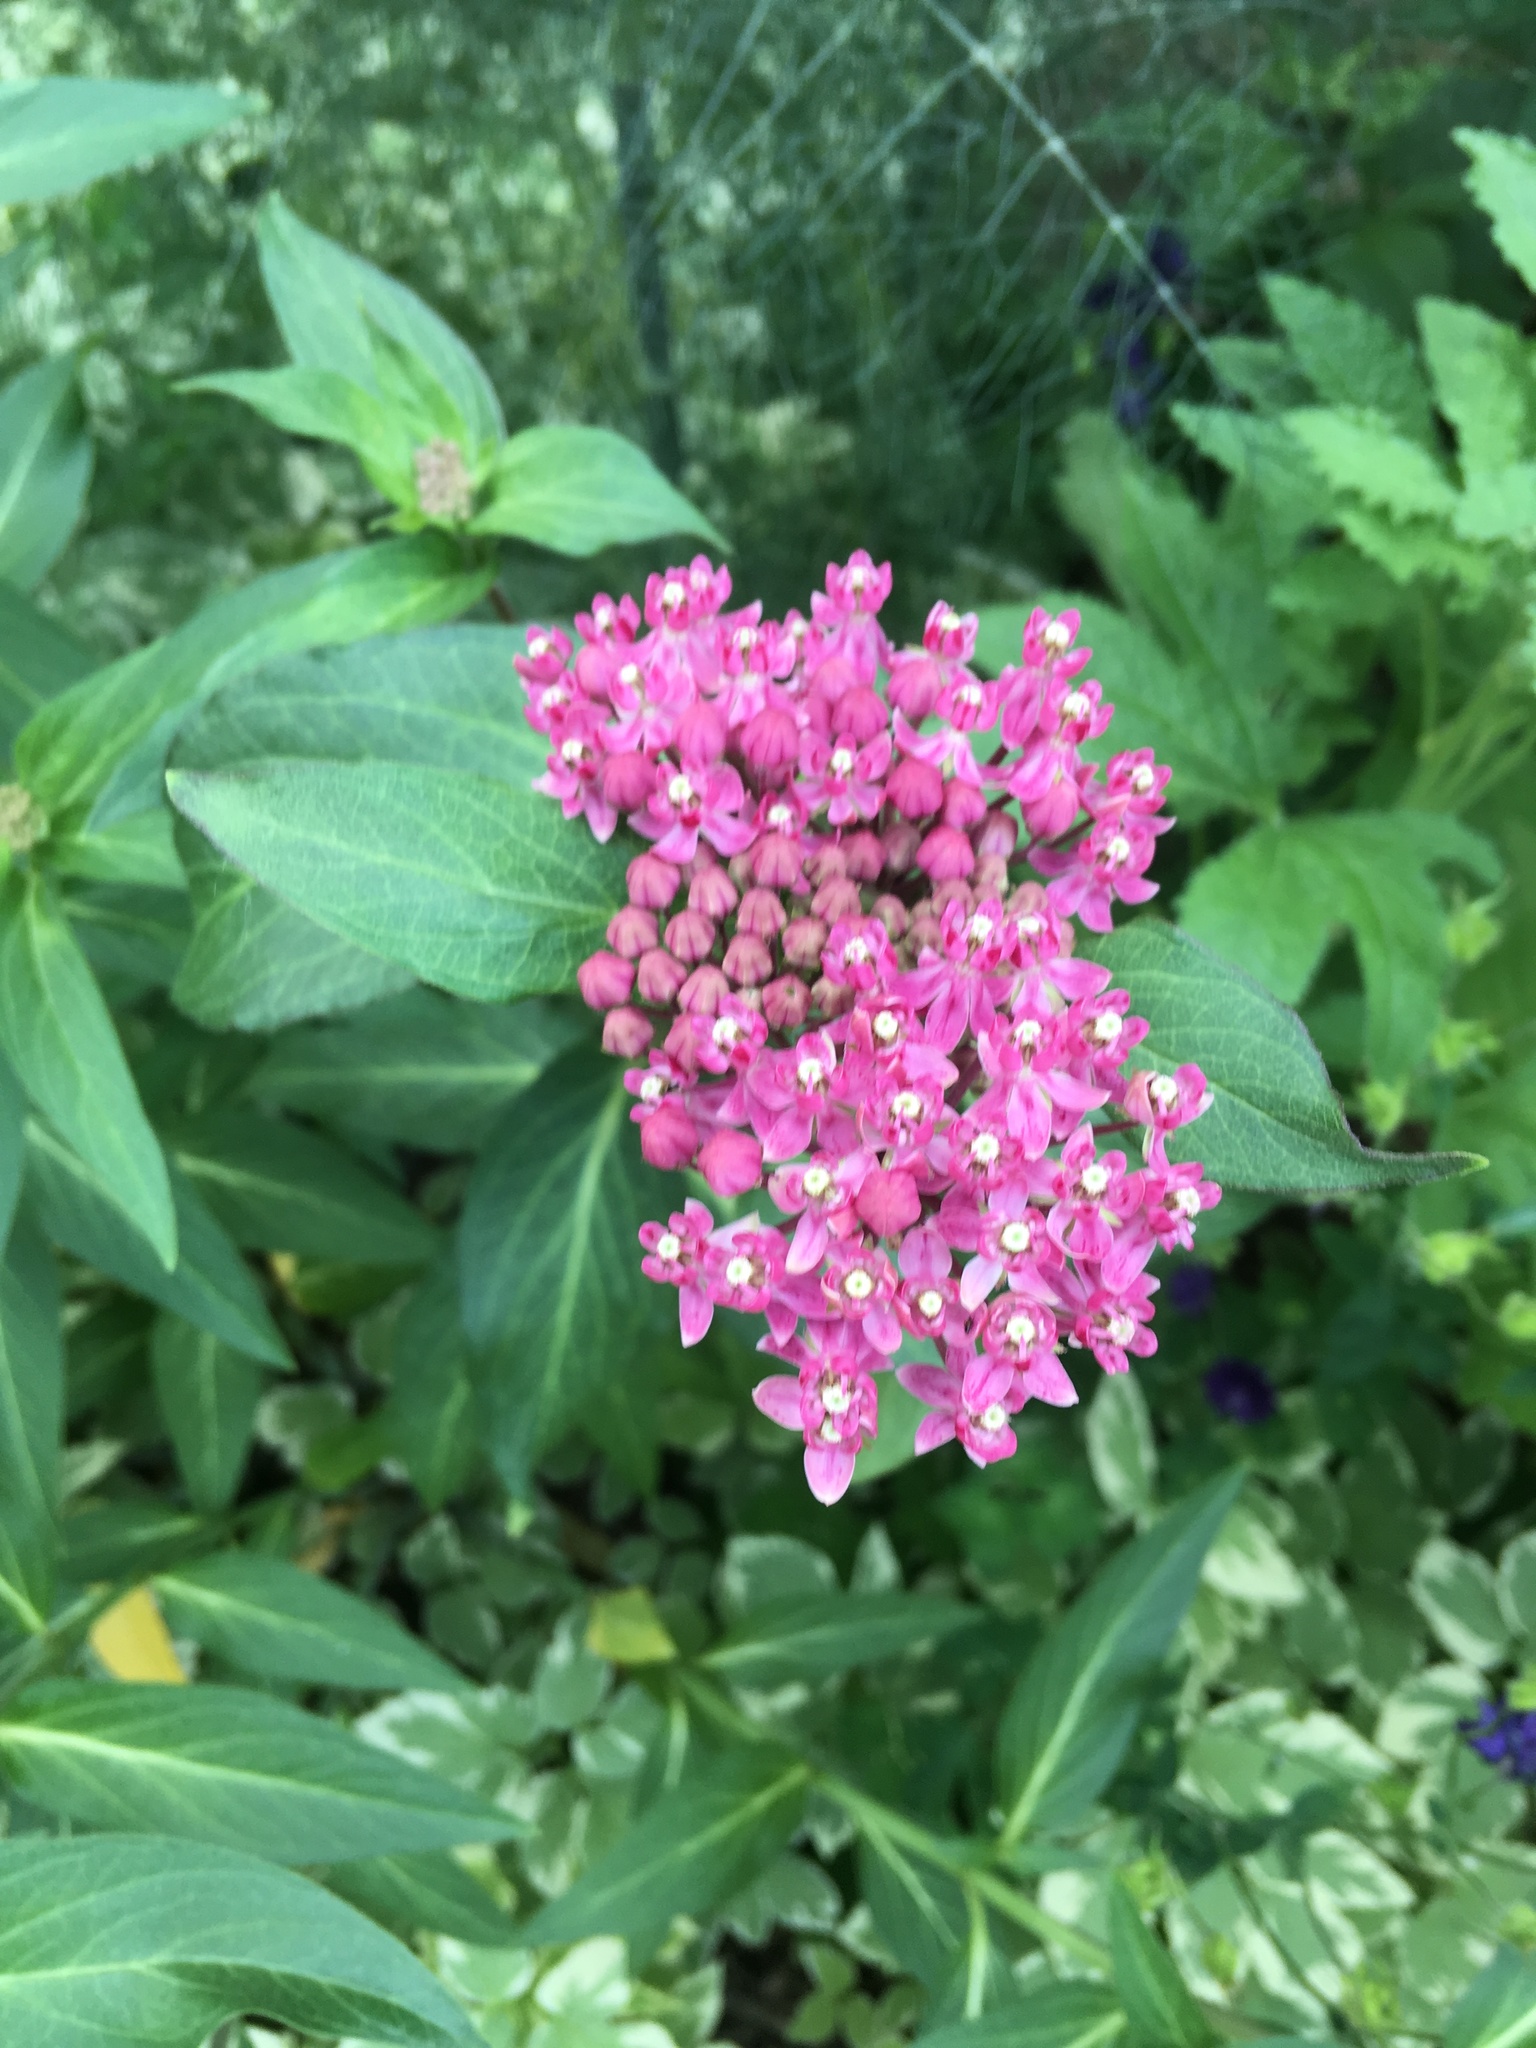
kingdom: Plantae
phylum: Tracheophyta
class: Magnoliopsida
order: Gentianales
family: Apocynaceae
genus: Asclepias
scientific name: Asclepias incarnata
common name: Swamp milkweed
